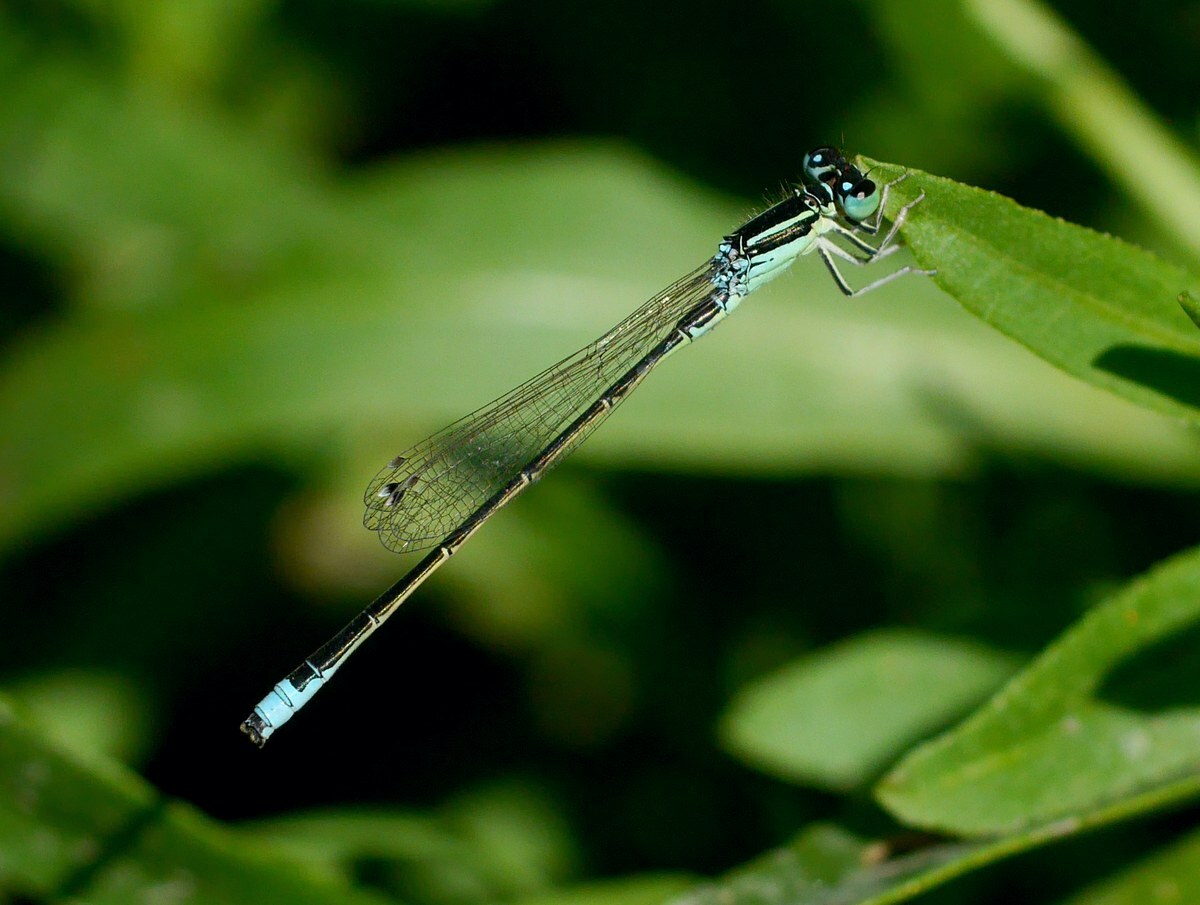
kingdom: Animalia
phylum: Arthropoda
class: Insecta
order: Odonata
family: Coenagrionidae
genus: Ischnura
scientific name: Ischnura pumilio
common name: Scarce blue-tailed damselfly
